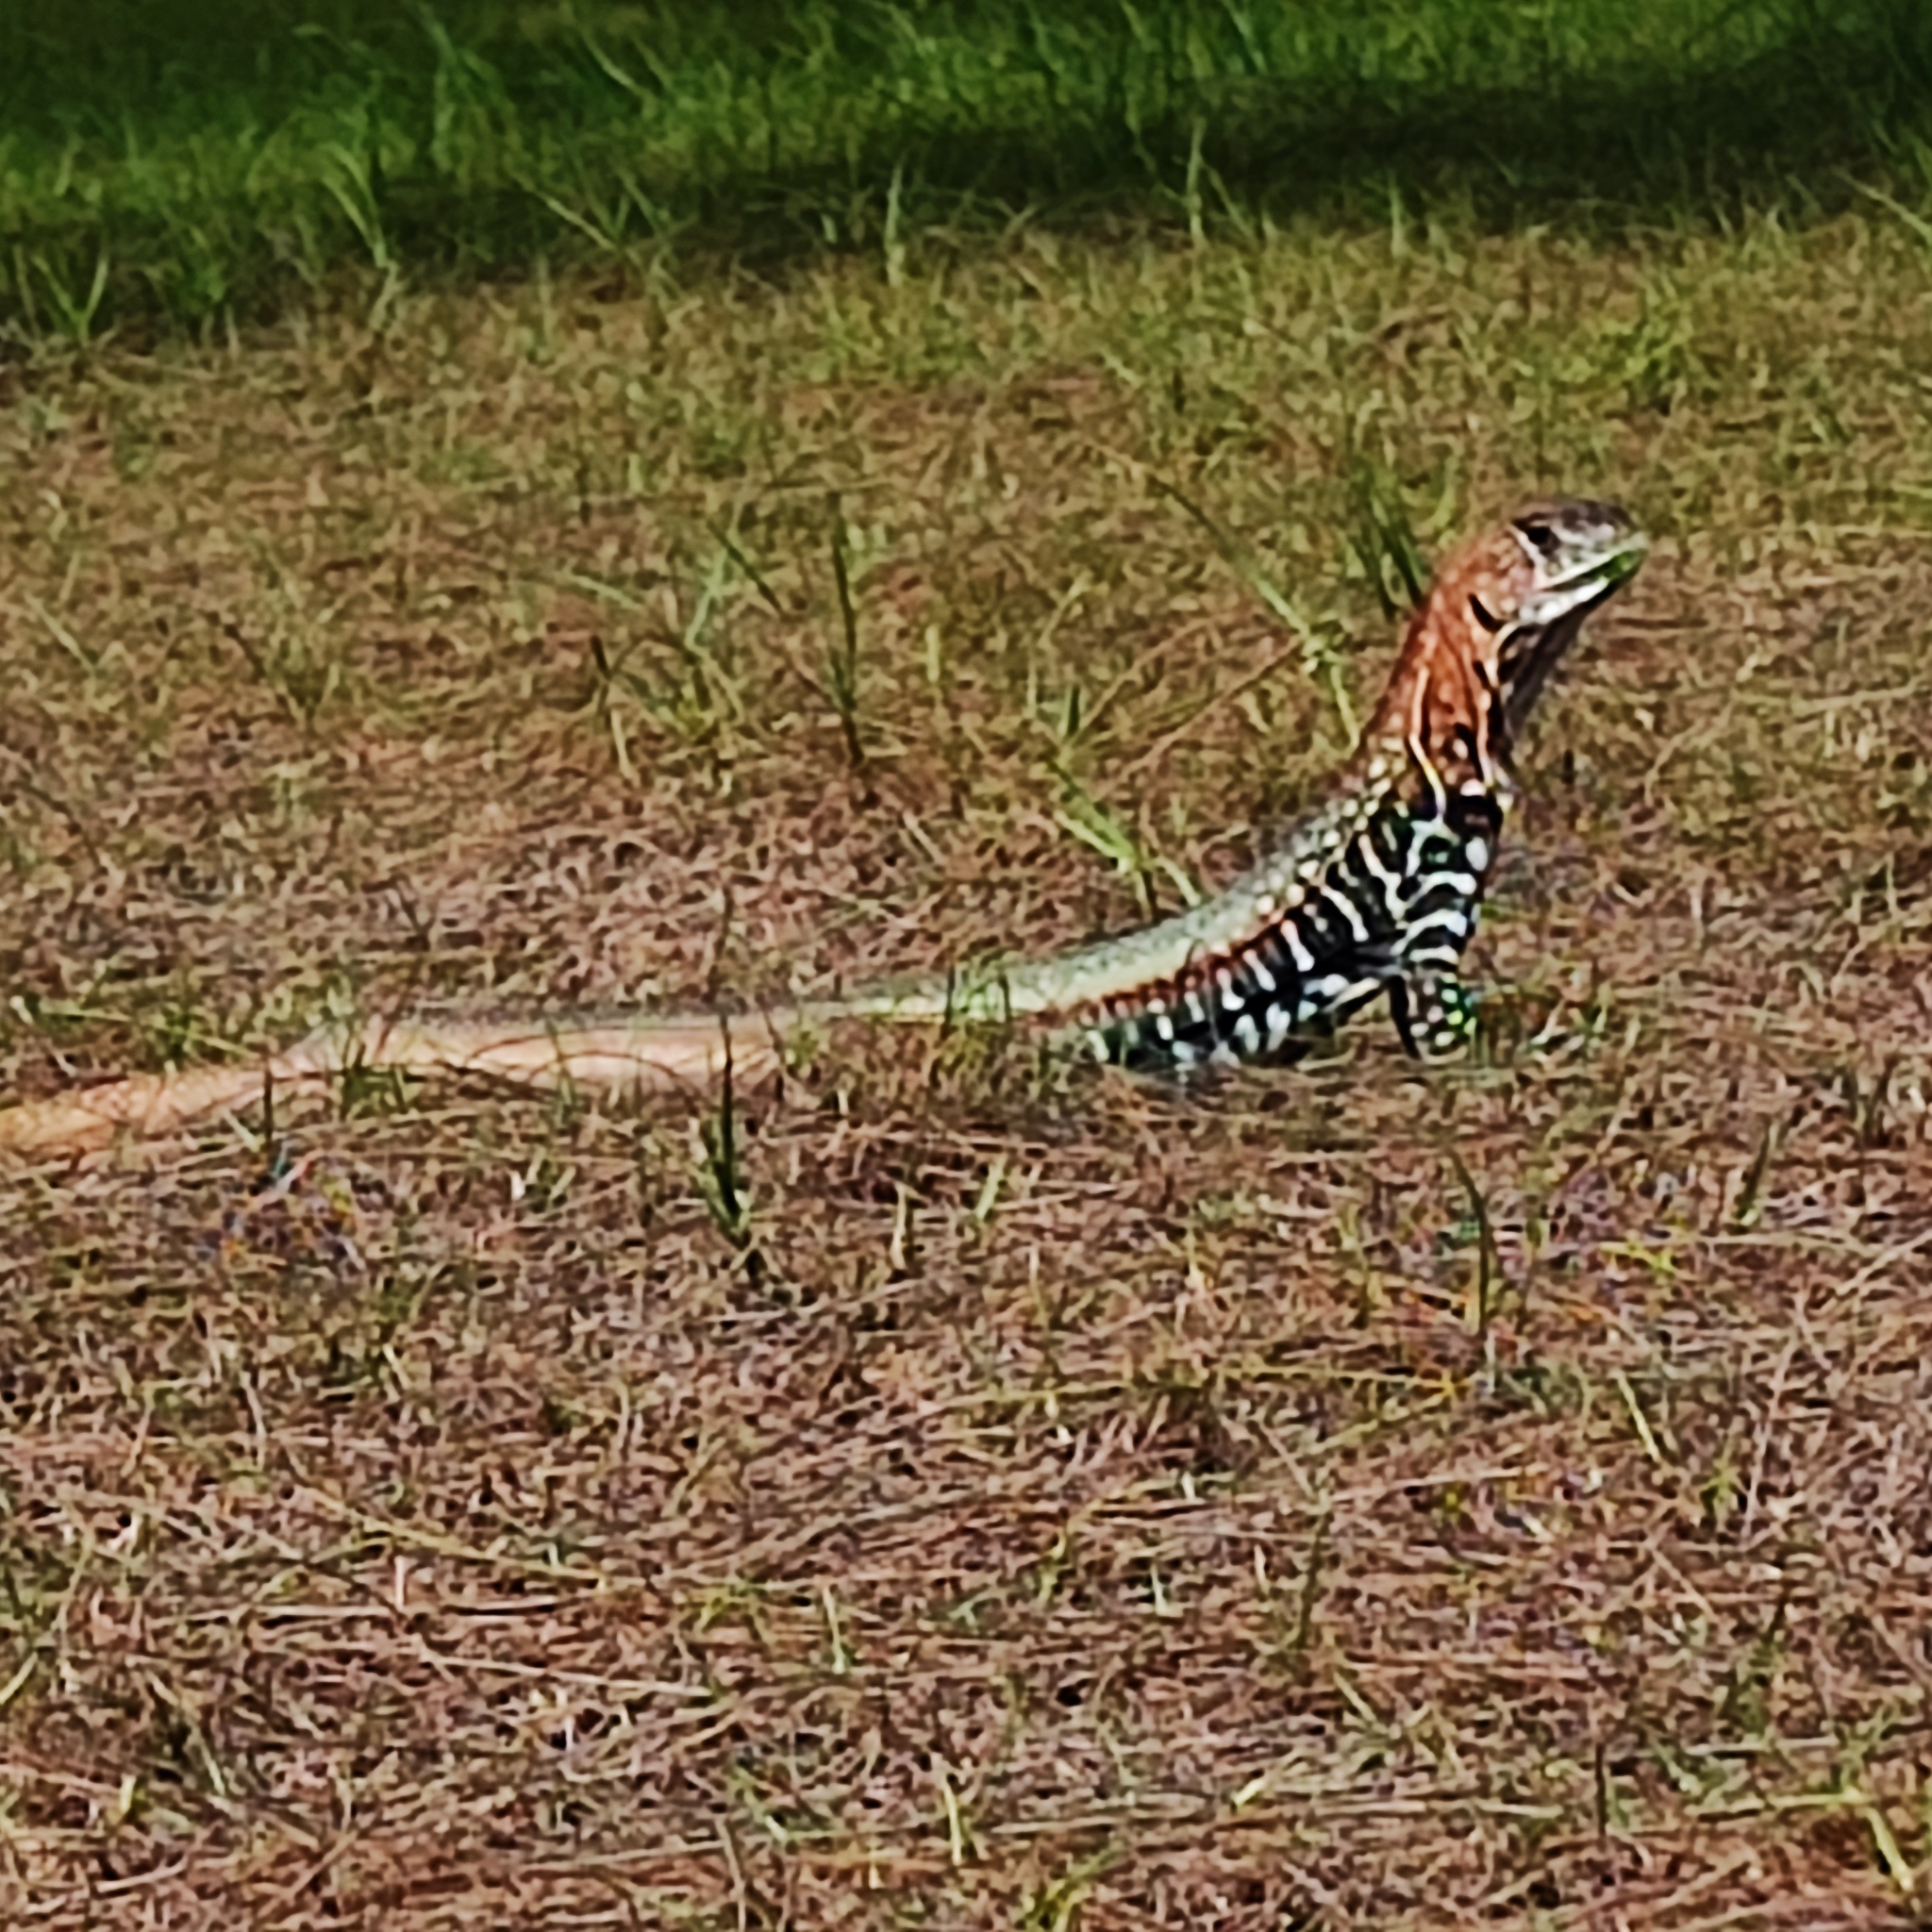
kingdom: Animalia
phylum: Chordata
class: Squamata
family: Agamidae
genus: Leiolepis
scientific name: Leiolepis guttata
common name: Spotted butterfly lizard
